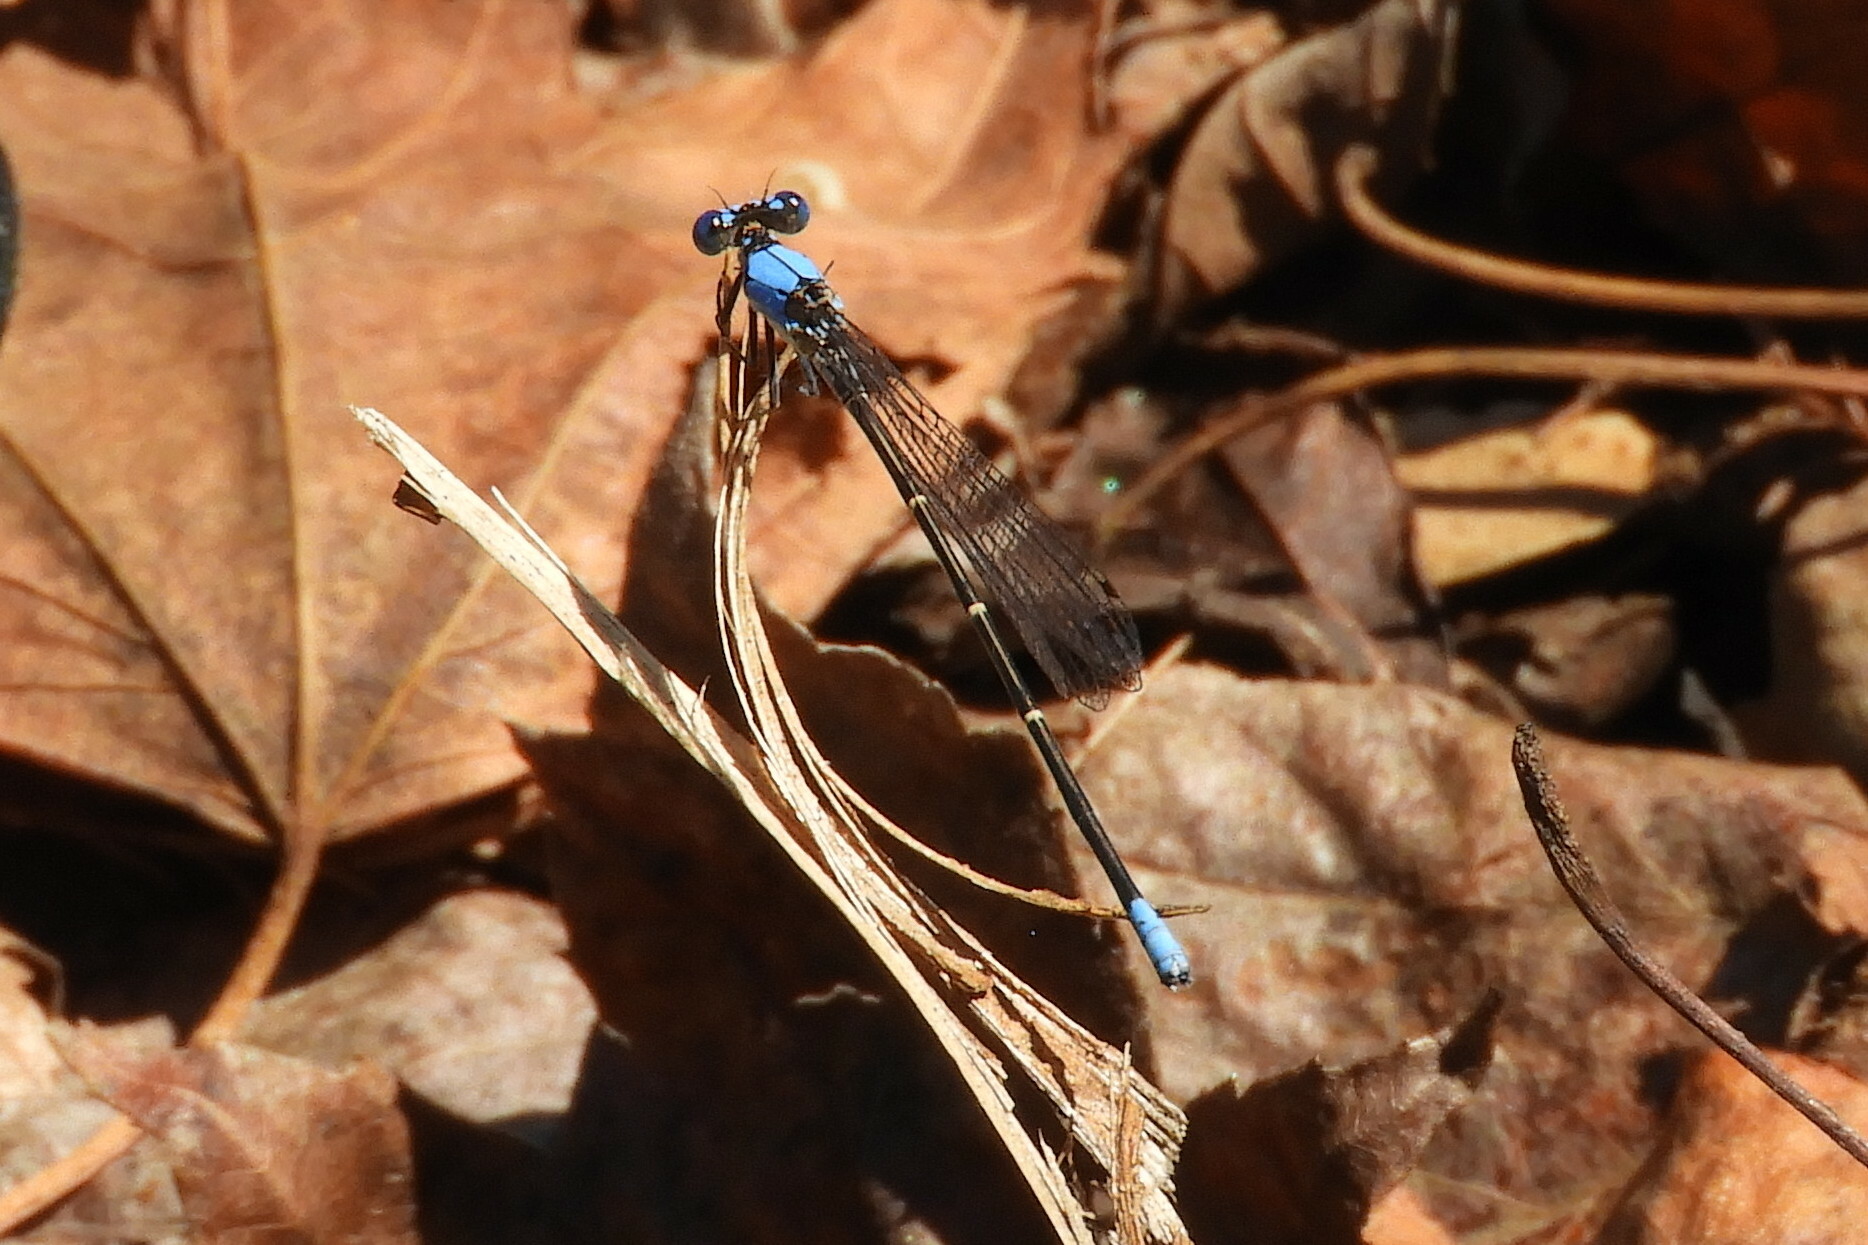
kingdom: Animalia
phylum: Arthropoda
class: Insecta
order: Odonata
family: Coenagrionidae
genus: Argia
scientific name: Argia apicalis
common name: Blue-fronted dancer
